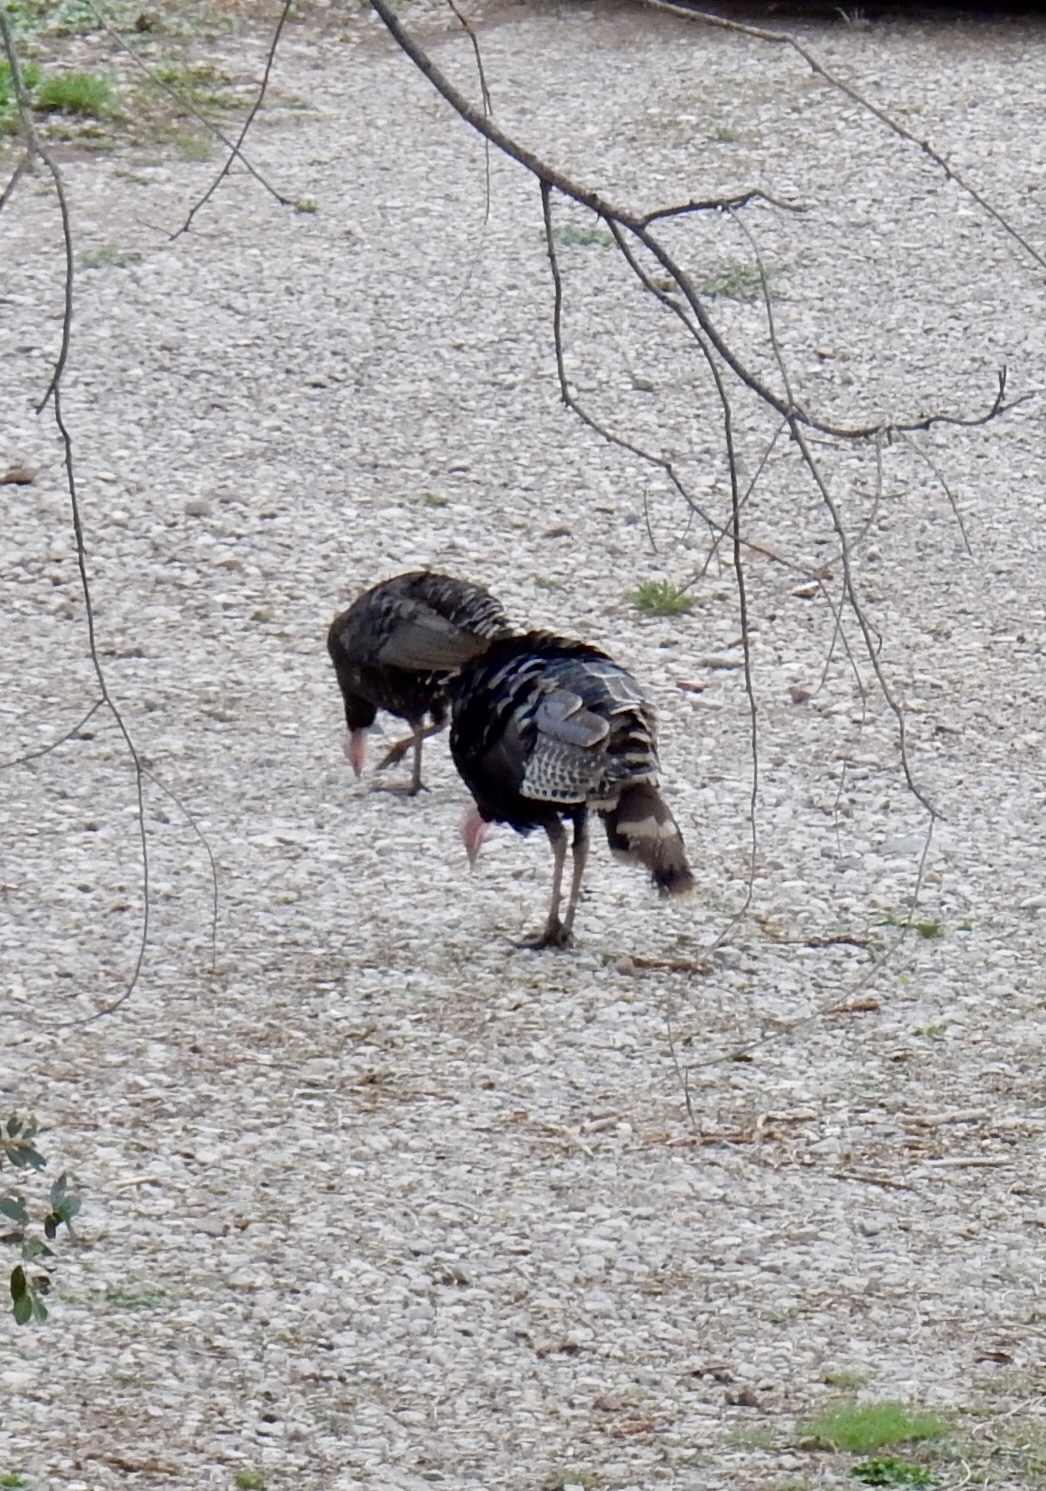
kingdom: Animalia
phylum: Chordata
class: Aves
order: Galliformes
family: Phasianidae
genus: Meleagris
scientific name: Meleagris gallopavo
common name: Wild turkey
